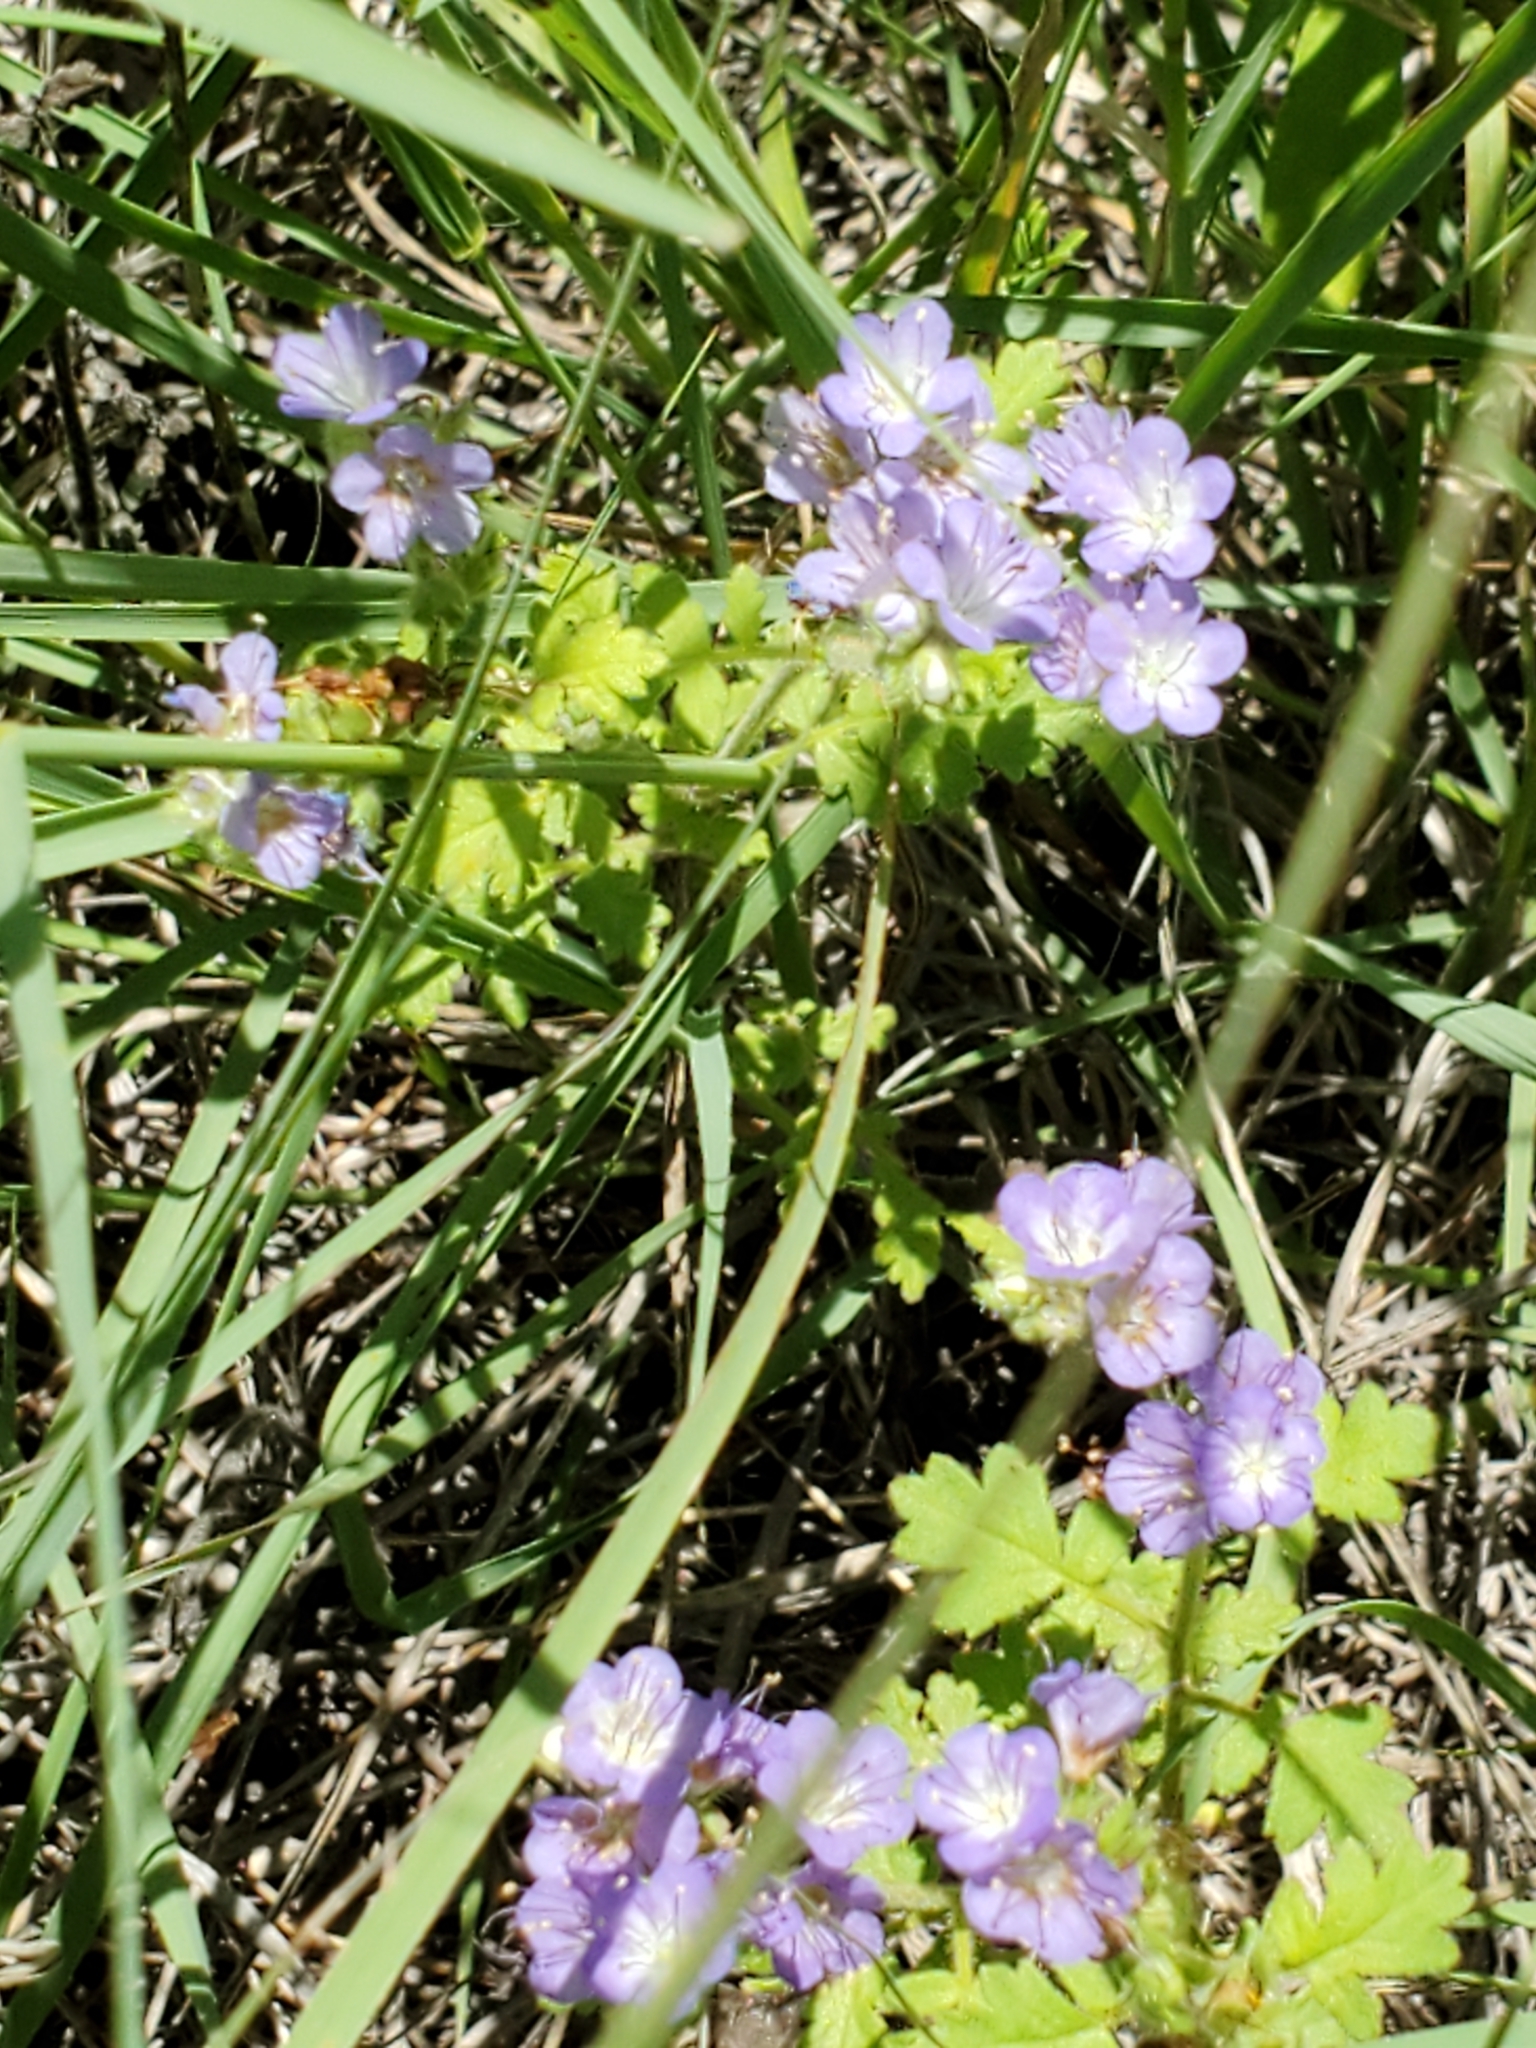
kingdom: Plantae
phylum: Tracheophyta
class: Magnoliopsida
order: Boraginales
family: Hydrophyllaceae
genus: Phacelia
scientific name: Phacelia congesta
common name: Blue curls
